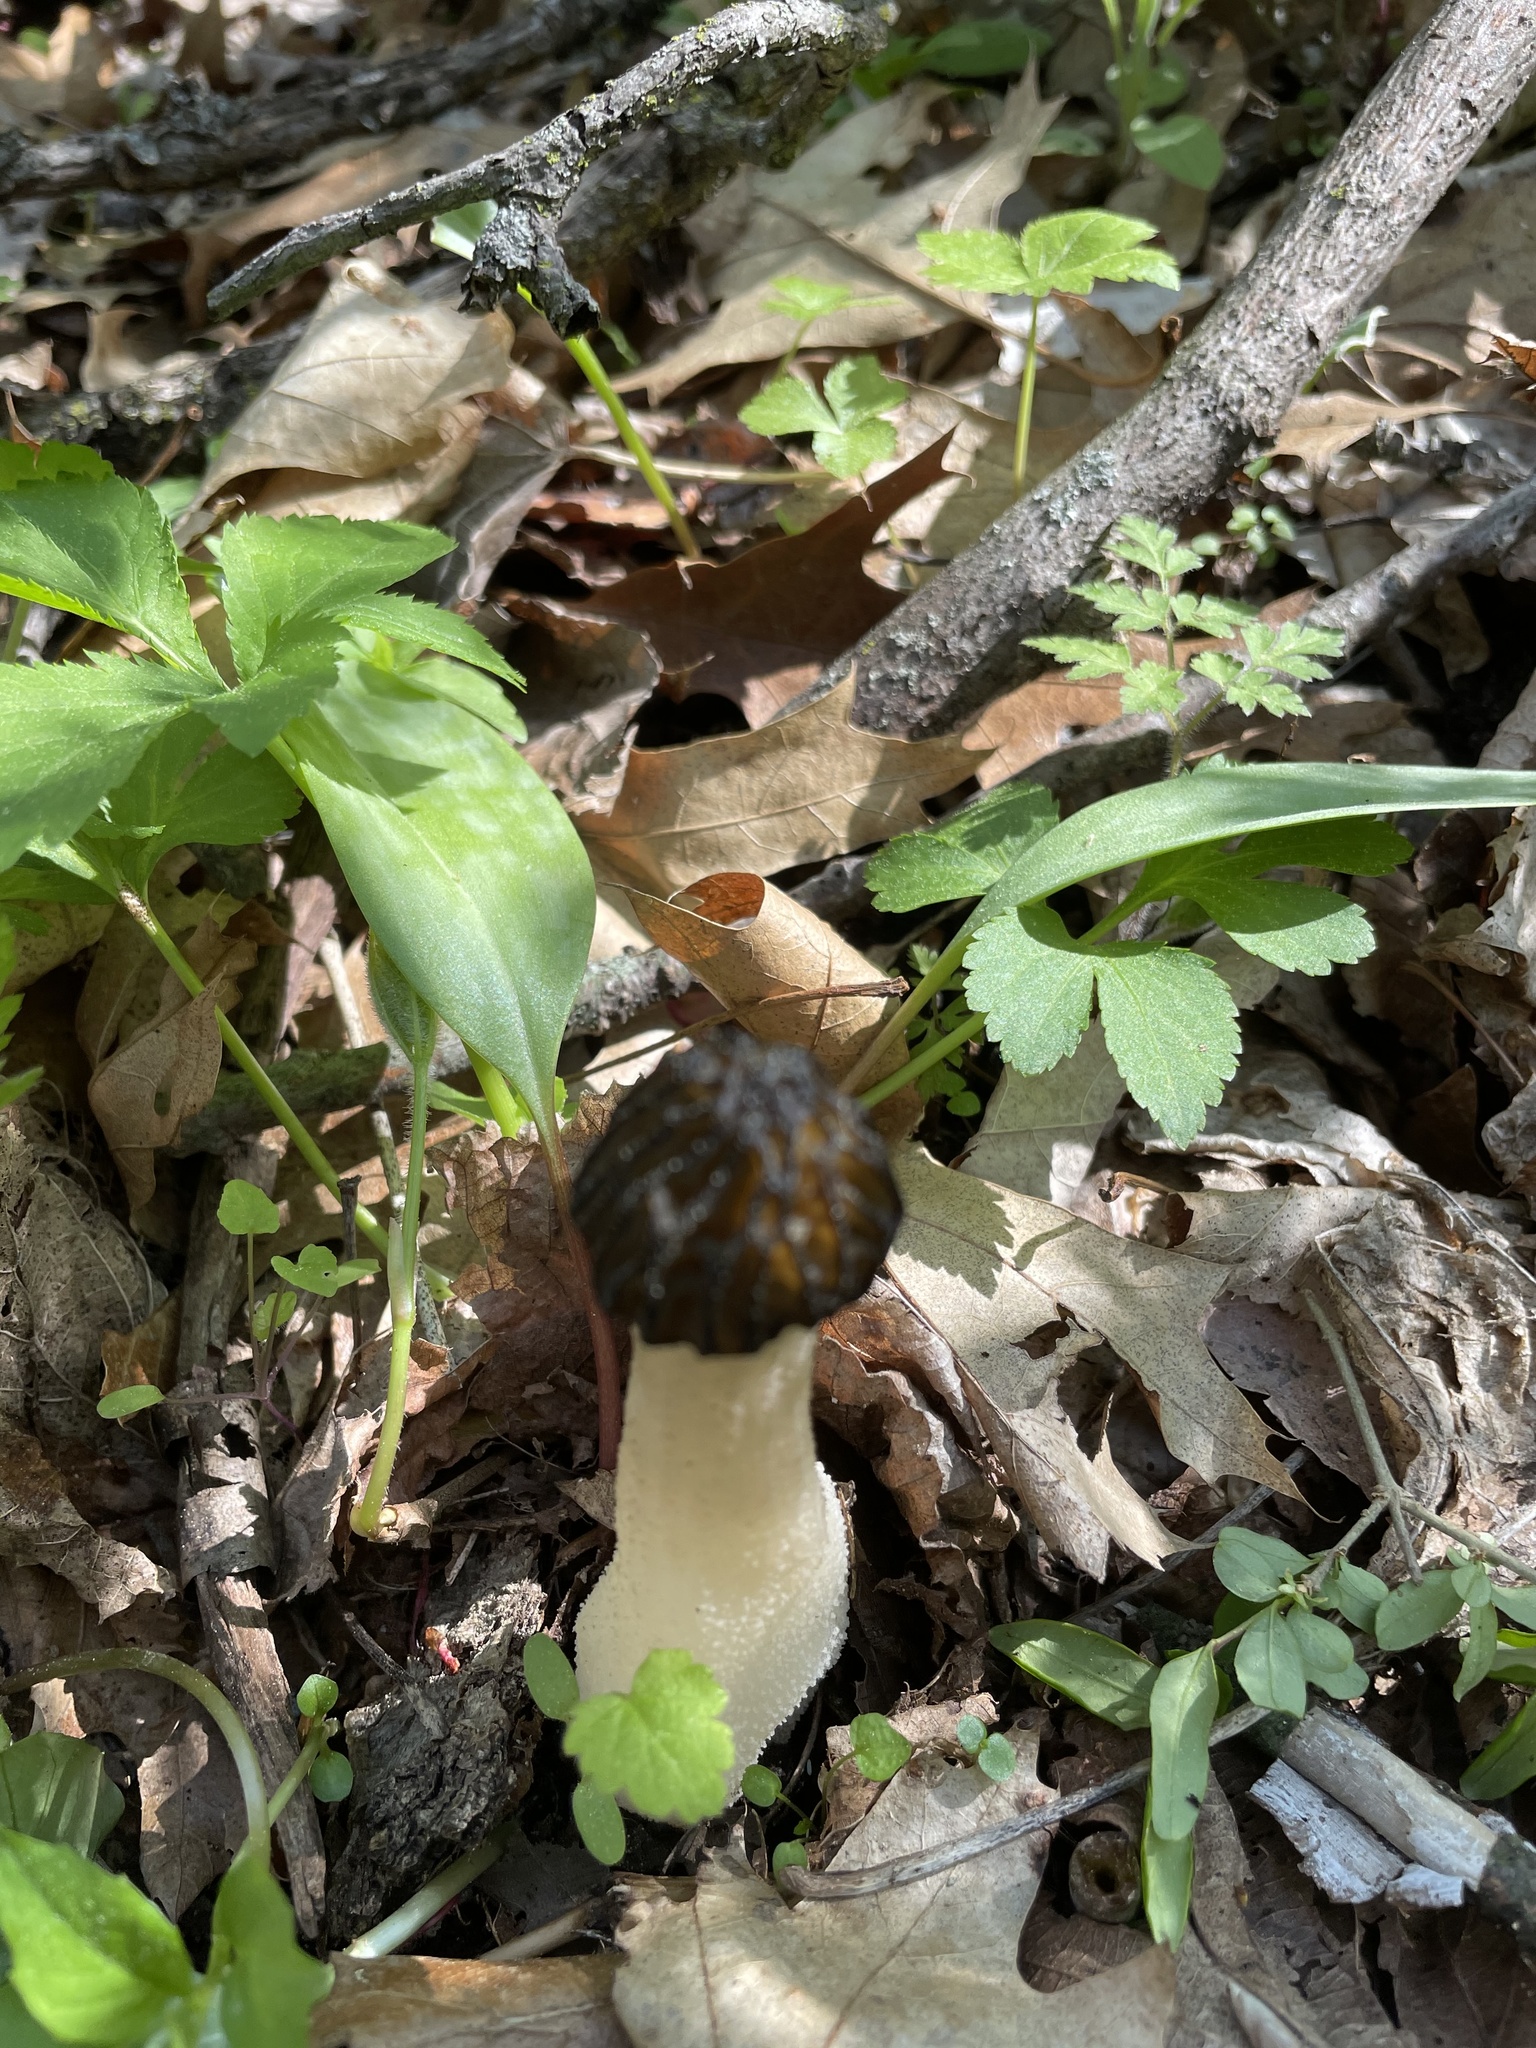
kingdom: Fungi
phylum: Ascomycota
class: Pezizomycetes
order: Pezizales
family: Morchellaceae
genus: Morchella
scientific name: Morchella punctipes
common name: Half-free morel
